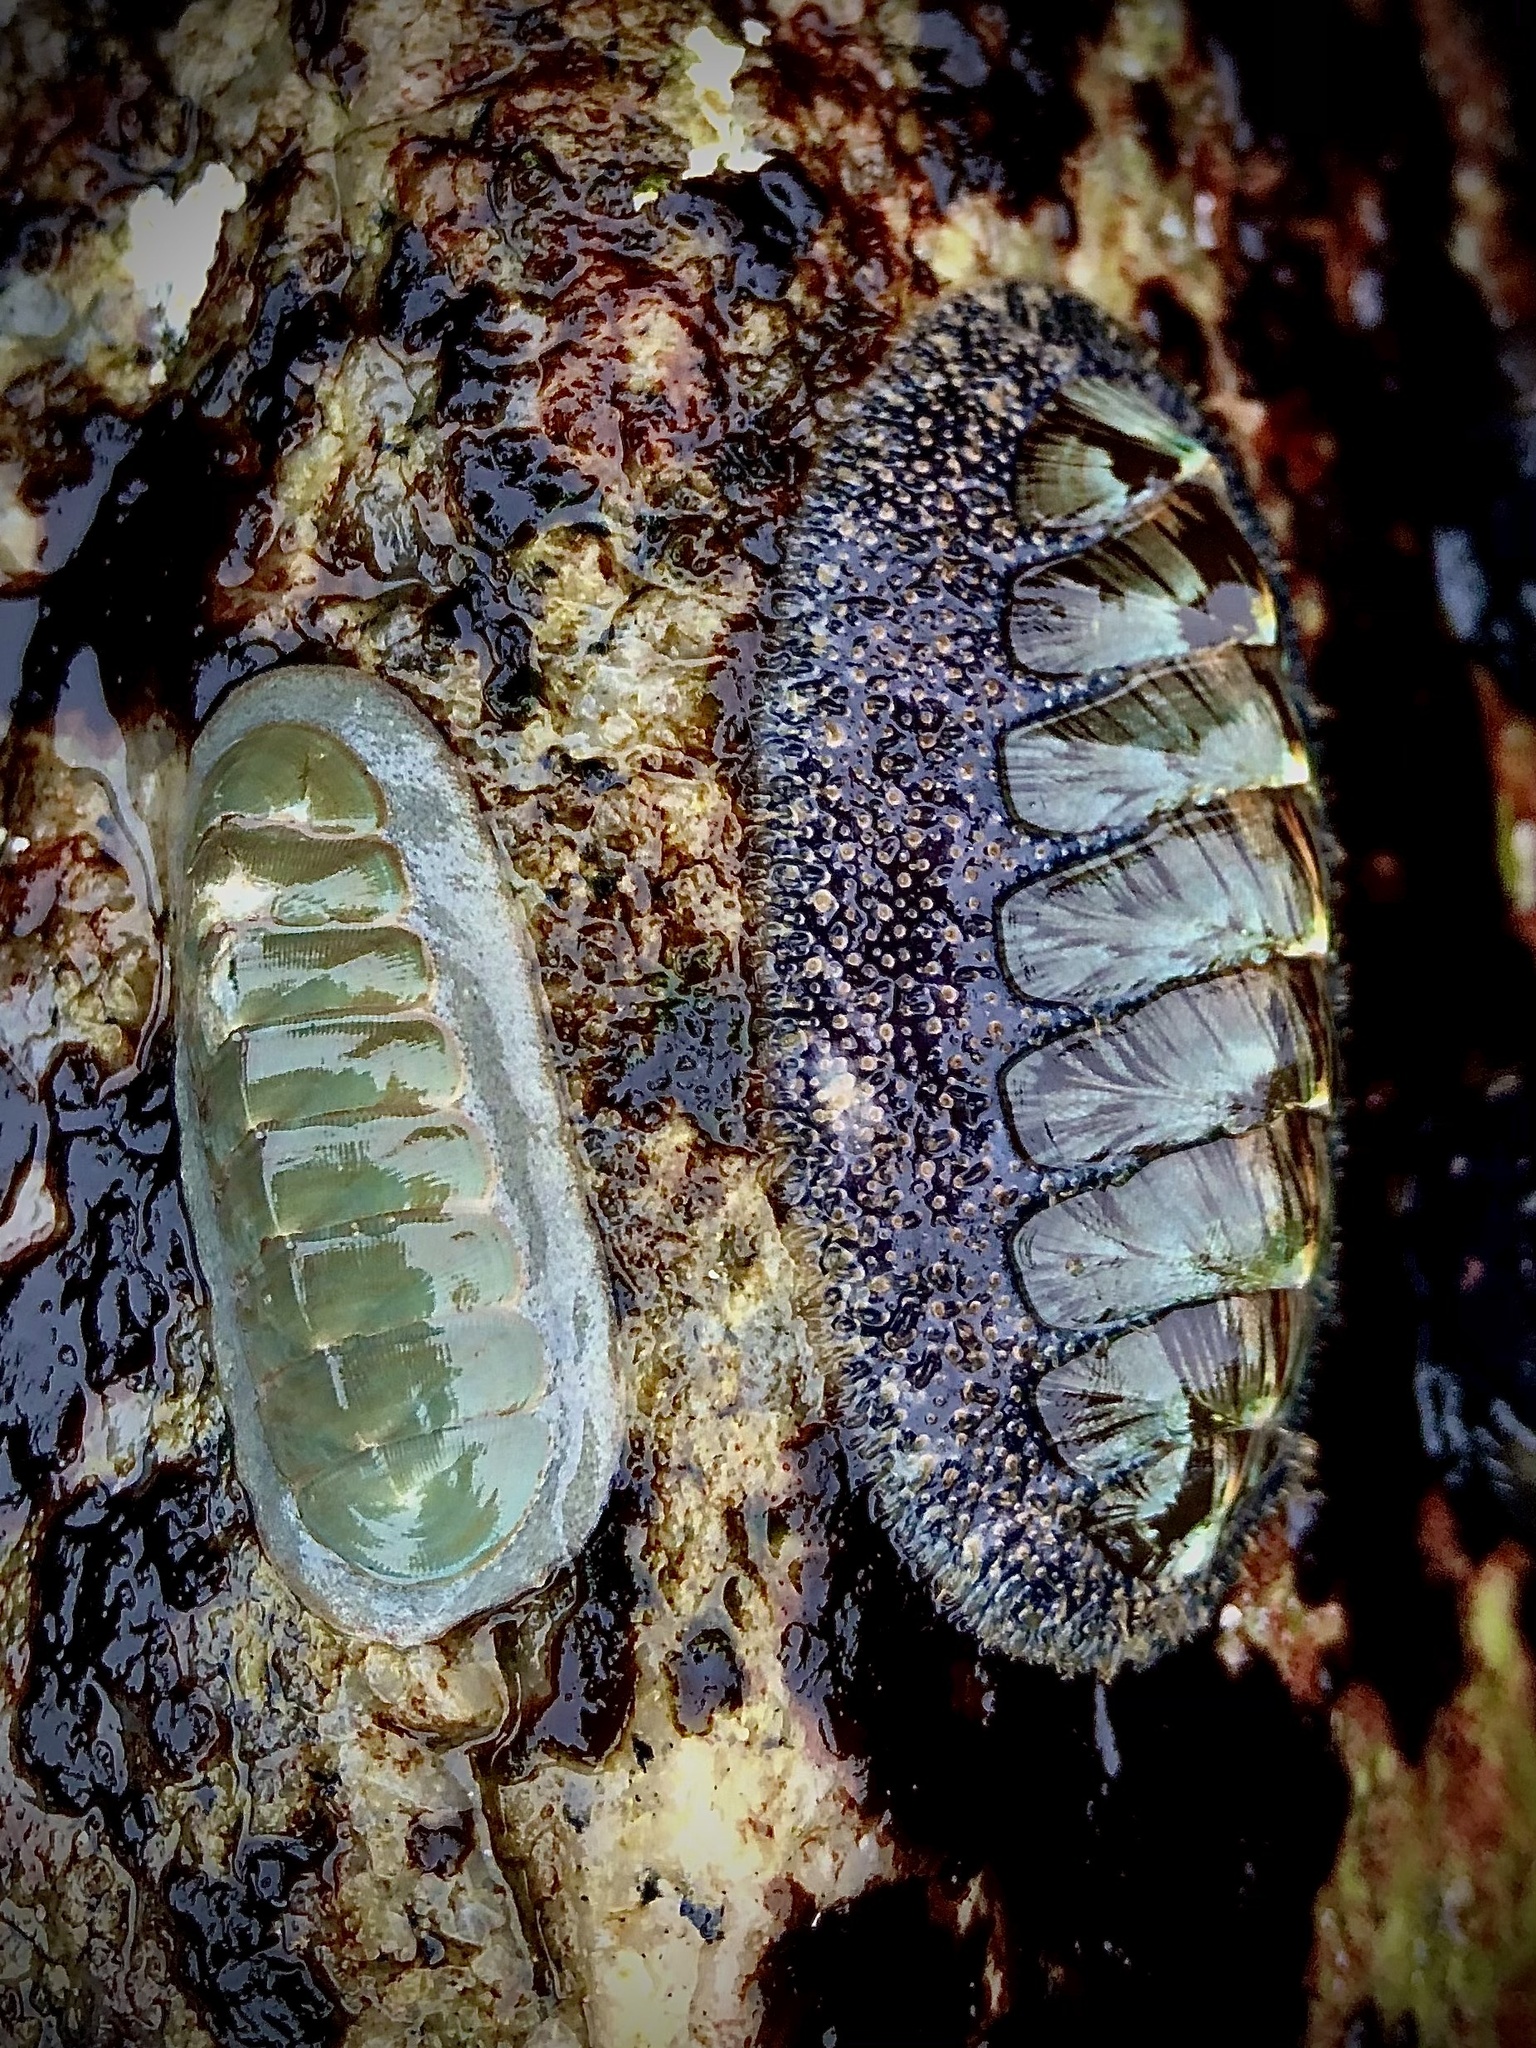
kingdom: Animalia
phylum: Mollusca
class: Polyplacophora
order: Chitonida
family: Mopaliidae
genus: Mopalia
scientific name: Mopalia lignosa
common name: Woody chiton
